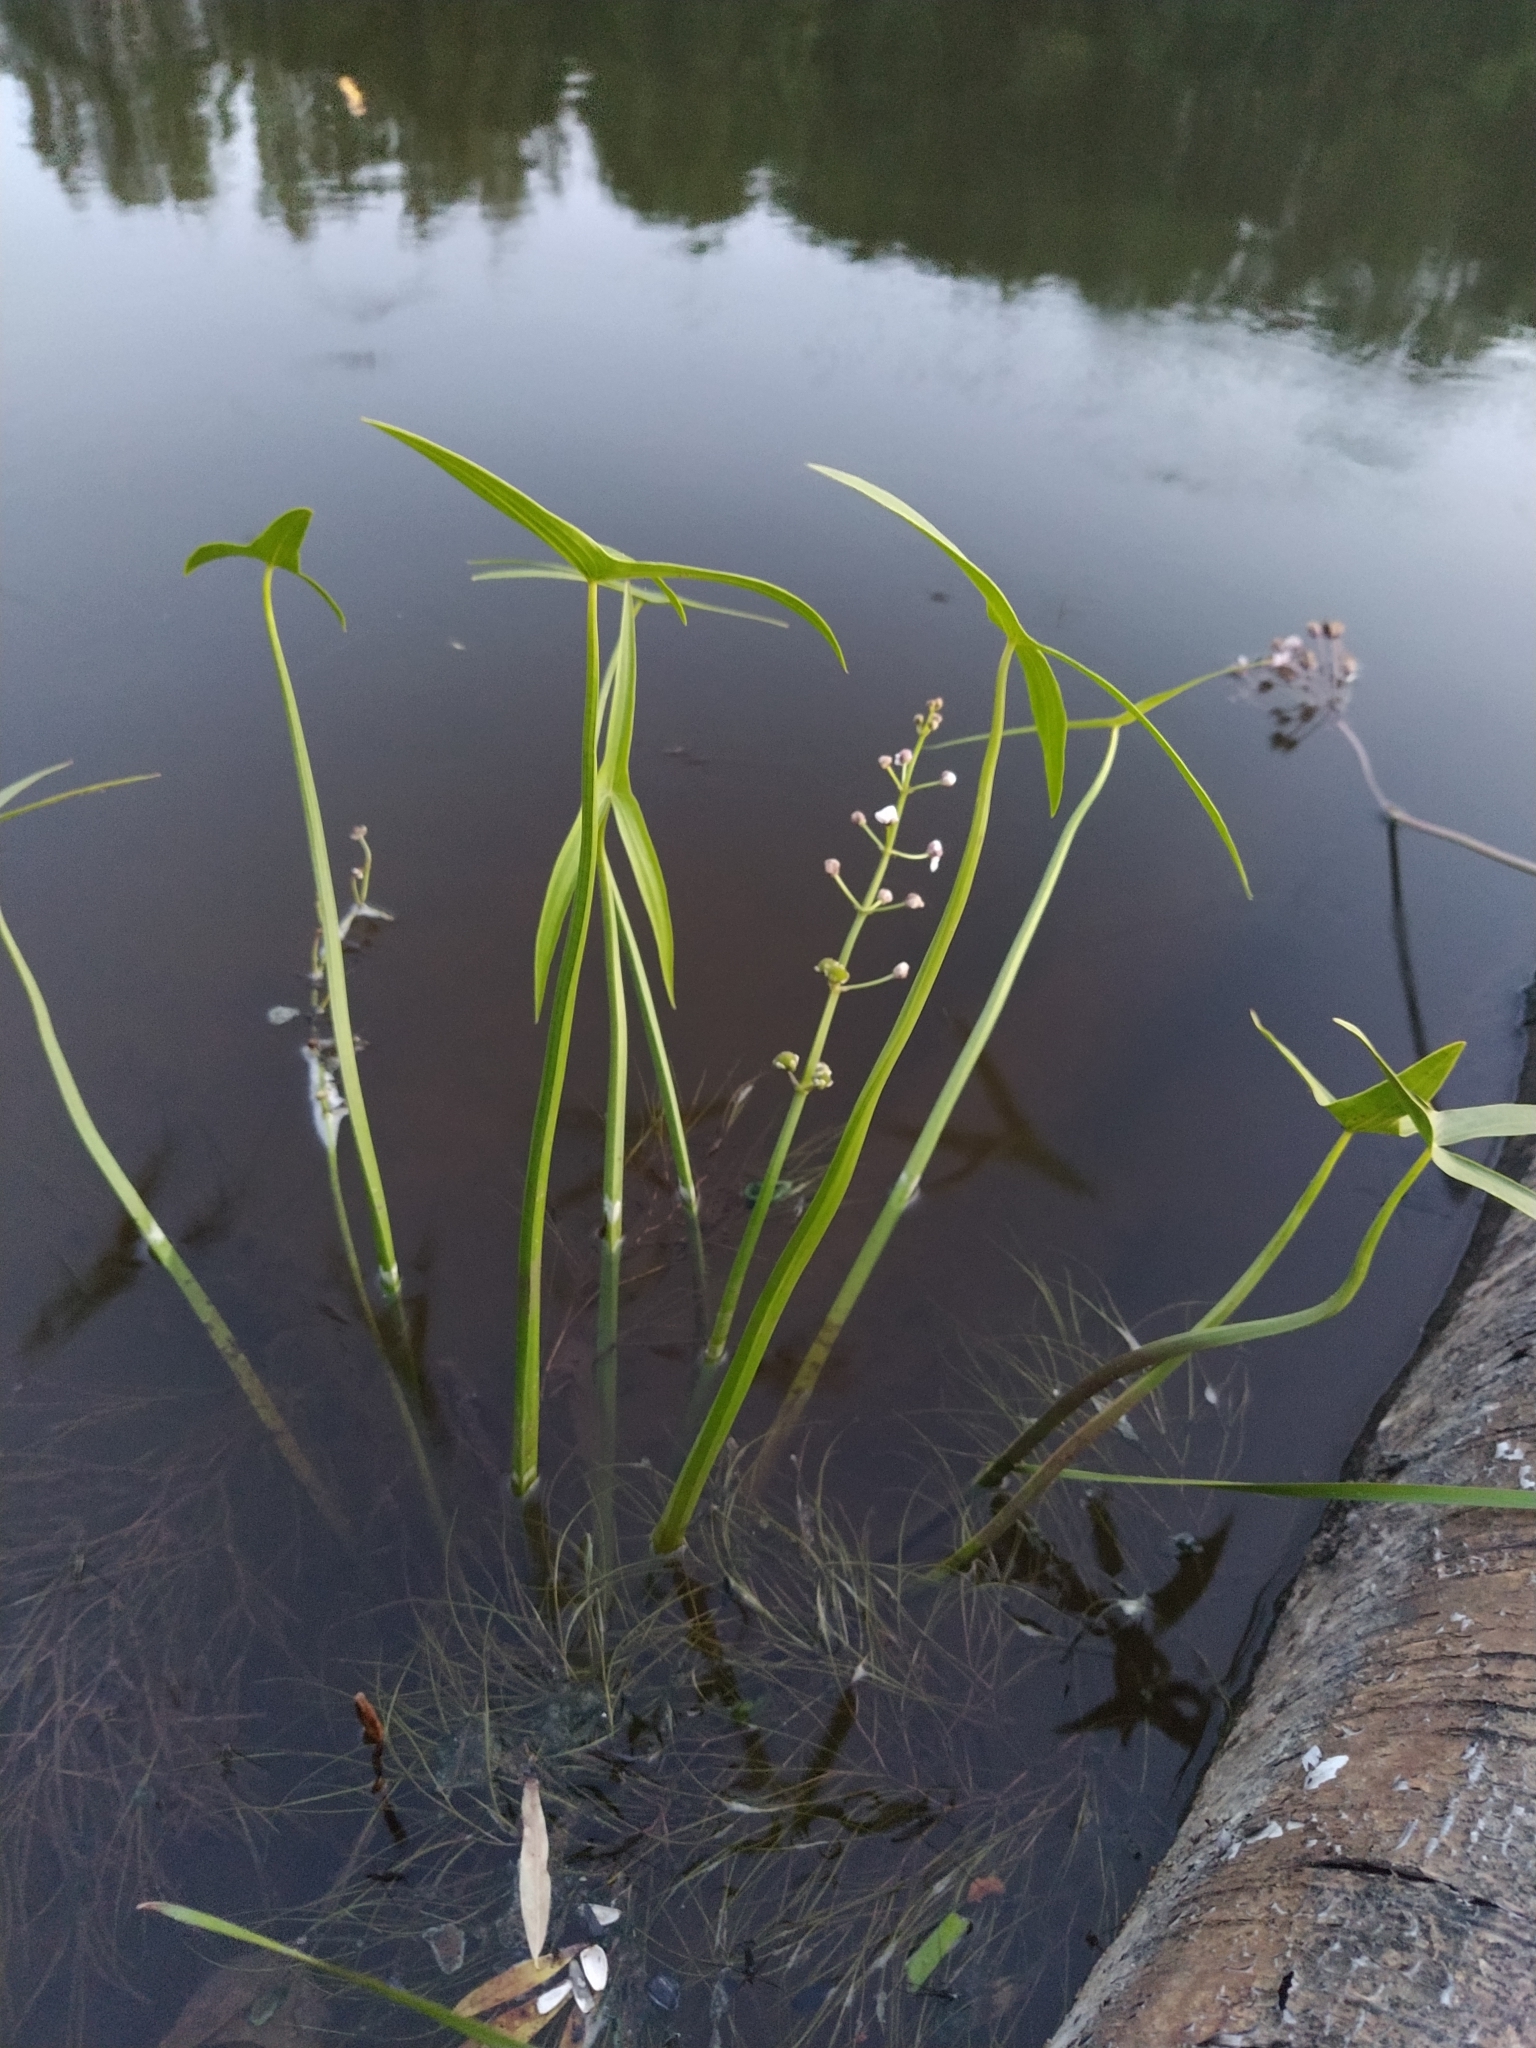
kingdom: Plantae
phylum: Tracheophyta
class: Liliopsida
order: Alismatales
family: Alismataceae
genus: Sagittaria
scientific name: Sagittaria sagittifolia
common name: Arrowhead
